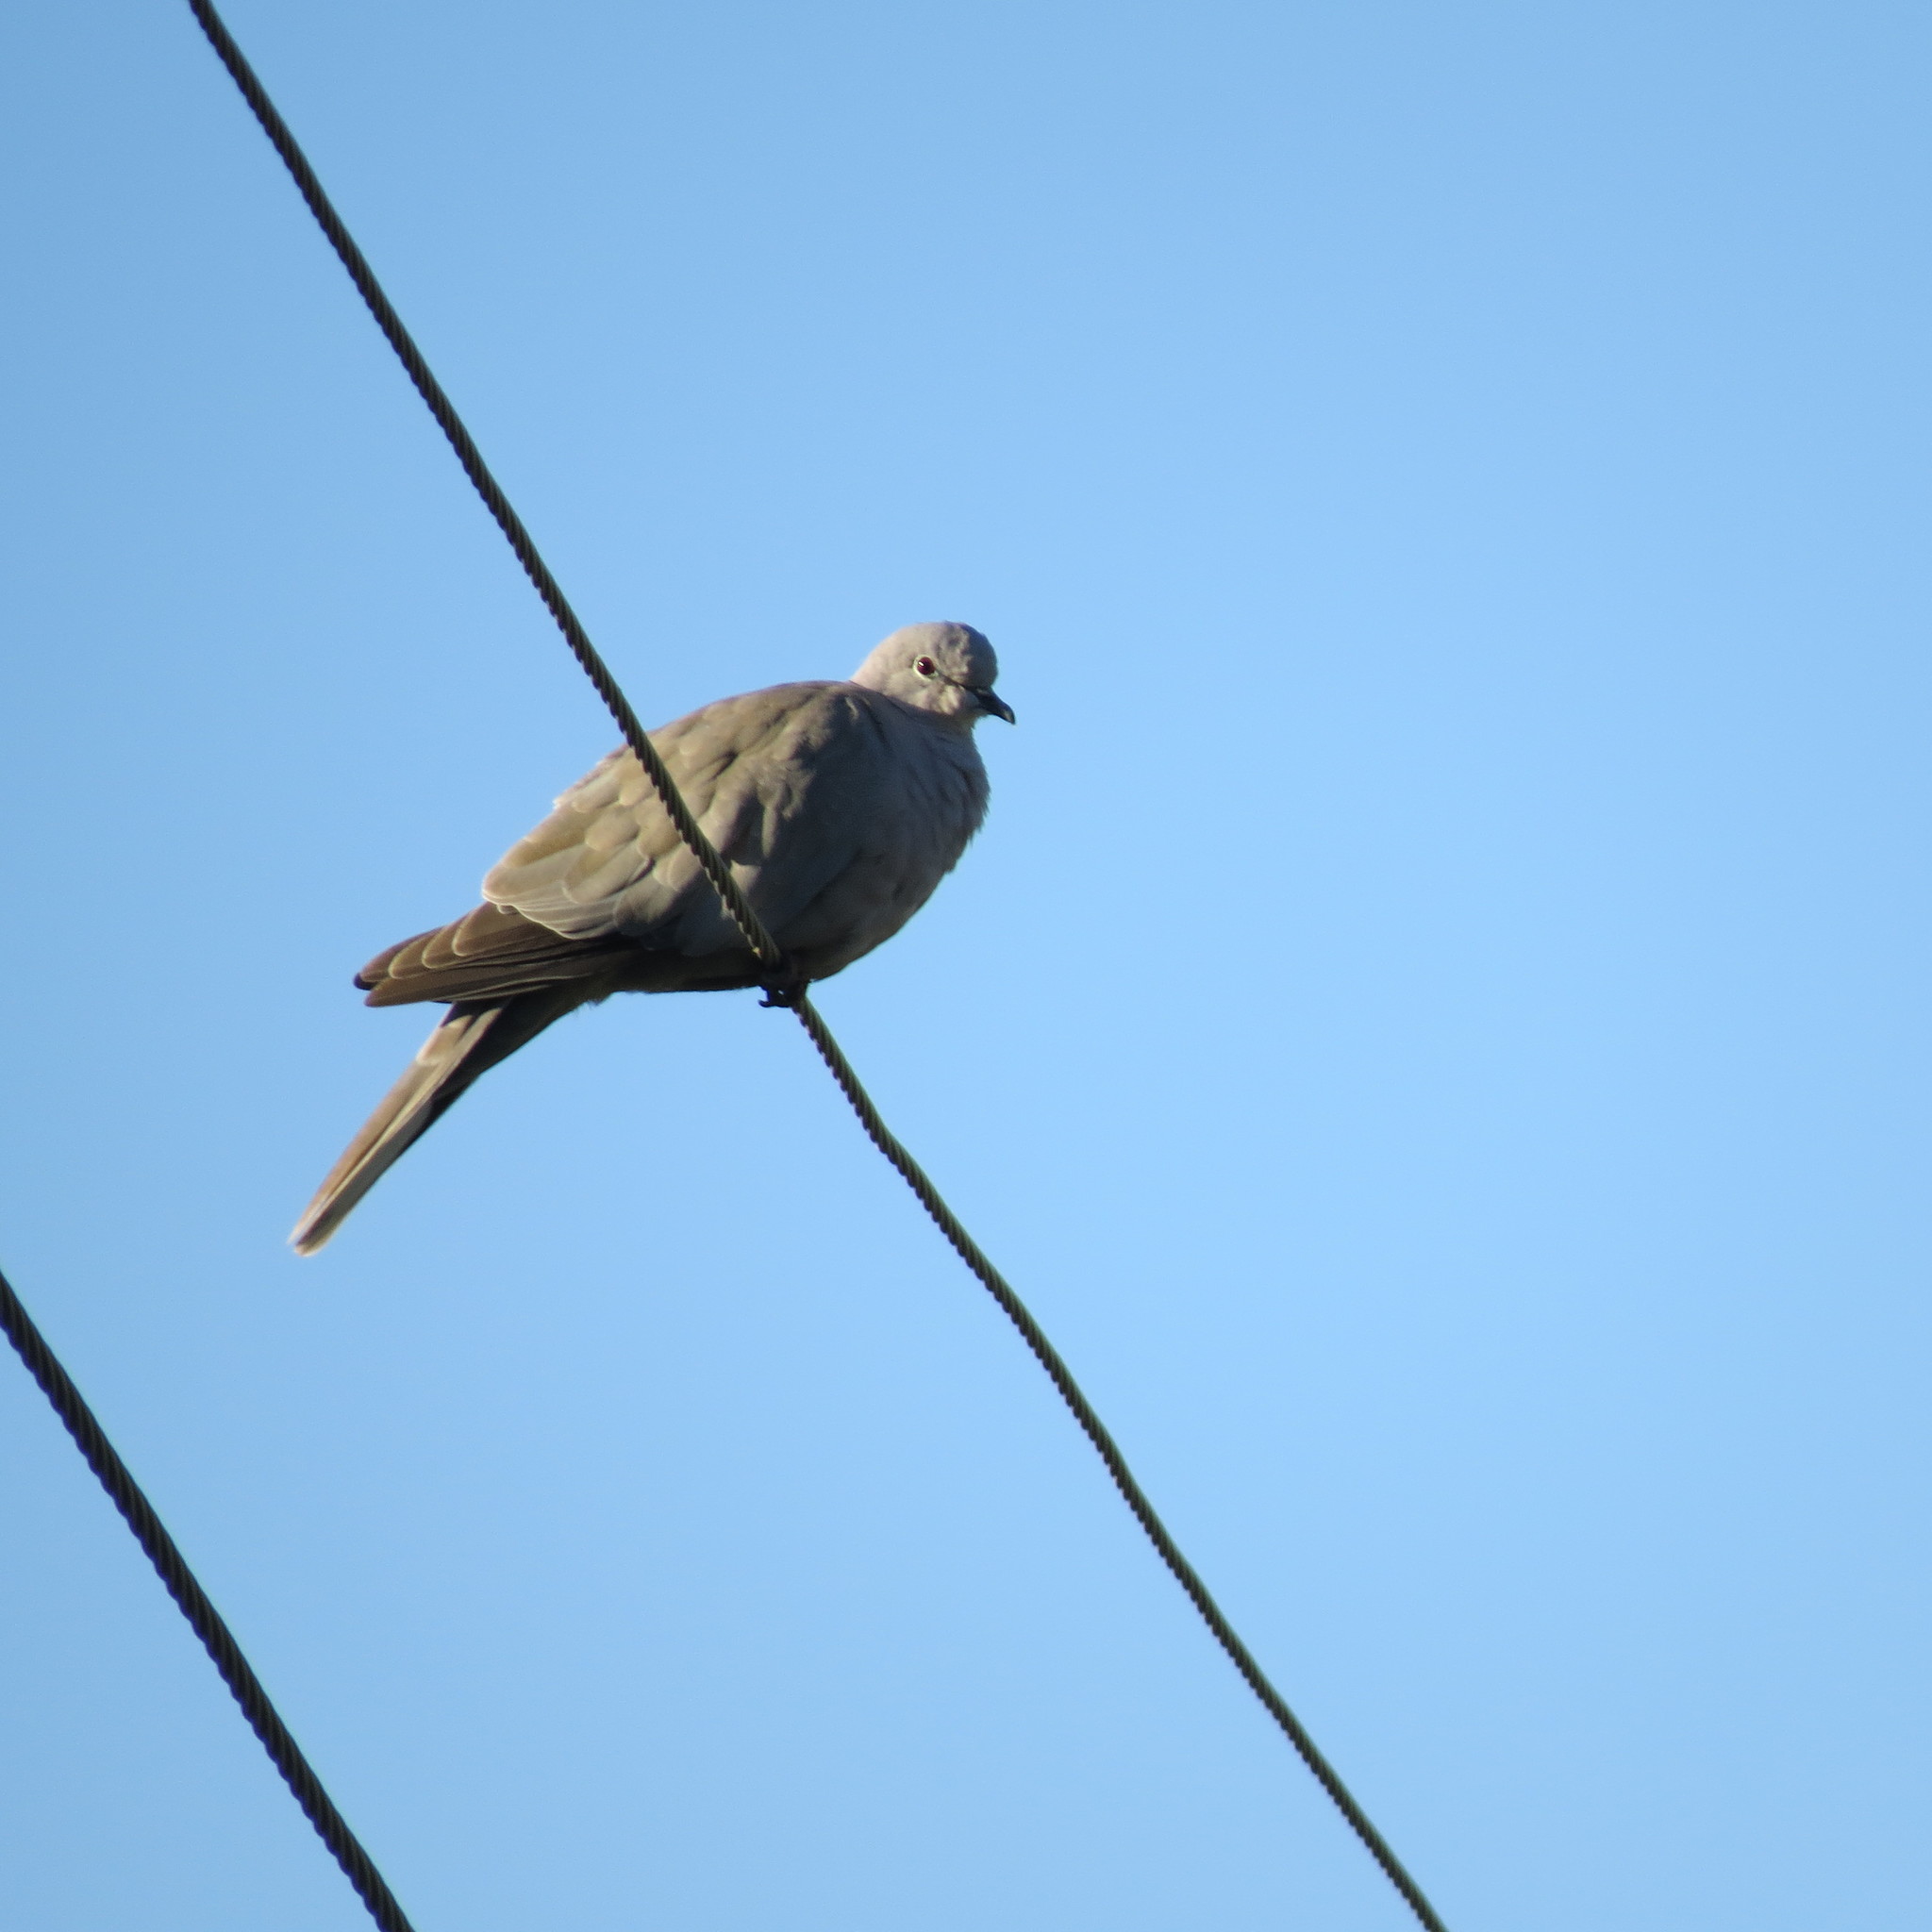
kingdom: Animalia
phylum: Chordata
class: Aves
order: Columbiformes
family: Columbidae
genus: Streptopelia
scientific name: Streptopelia decaocto
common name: Eurasian collared dove
